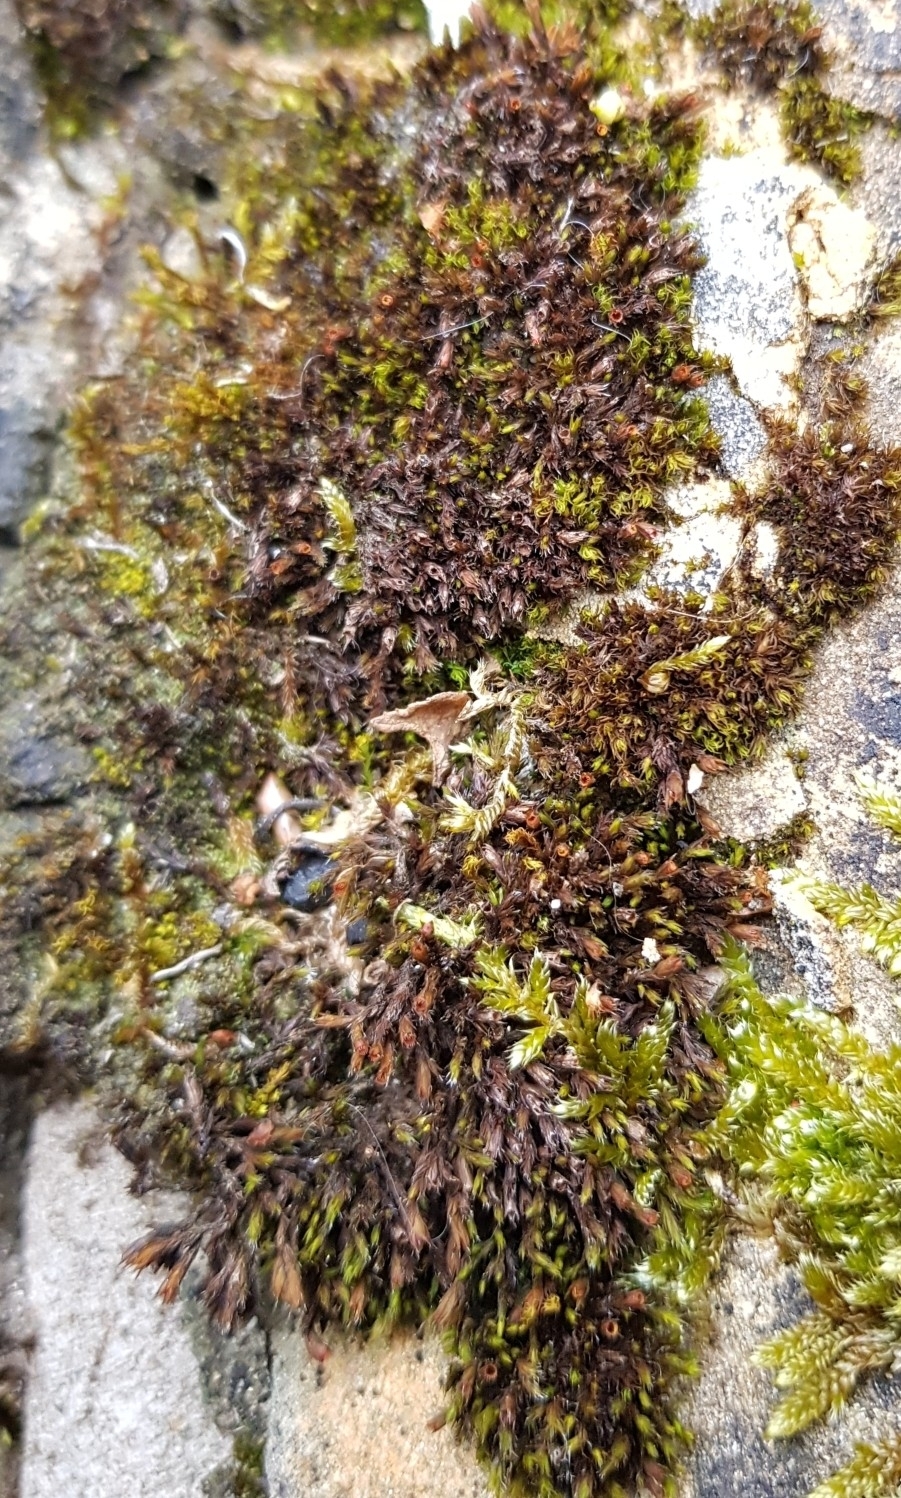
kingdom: Plantae
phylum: Bryophyta
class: Bryopsida
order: Grimmiales
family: Grimmiaceae
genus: Schistidium
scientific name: Schistidium crassipilum
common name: Thickpoint bloom moss
